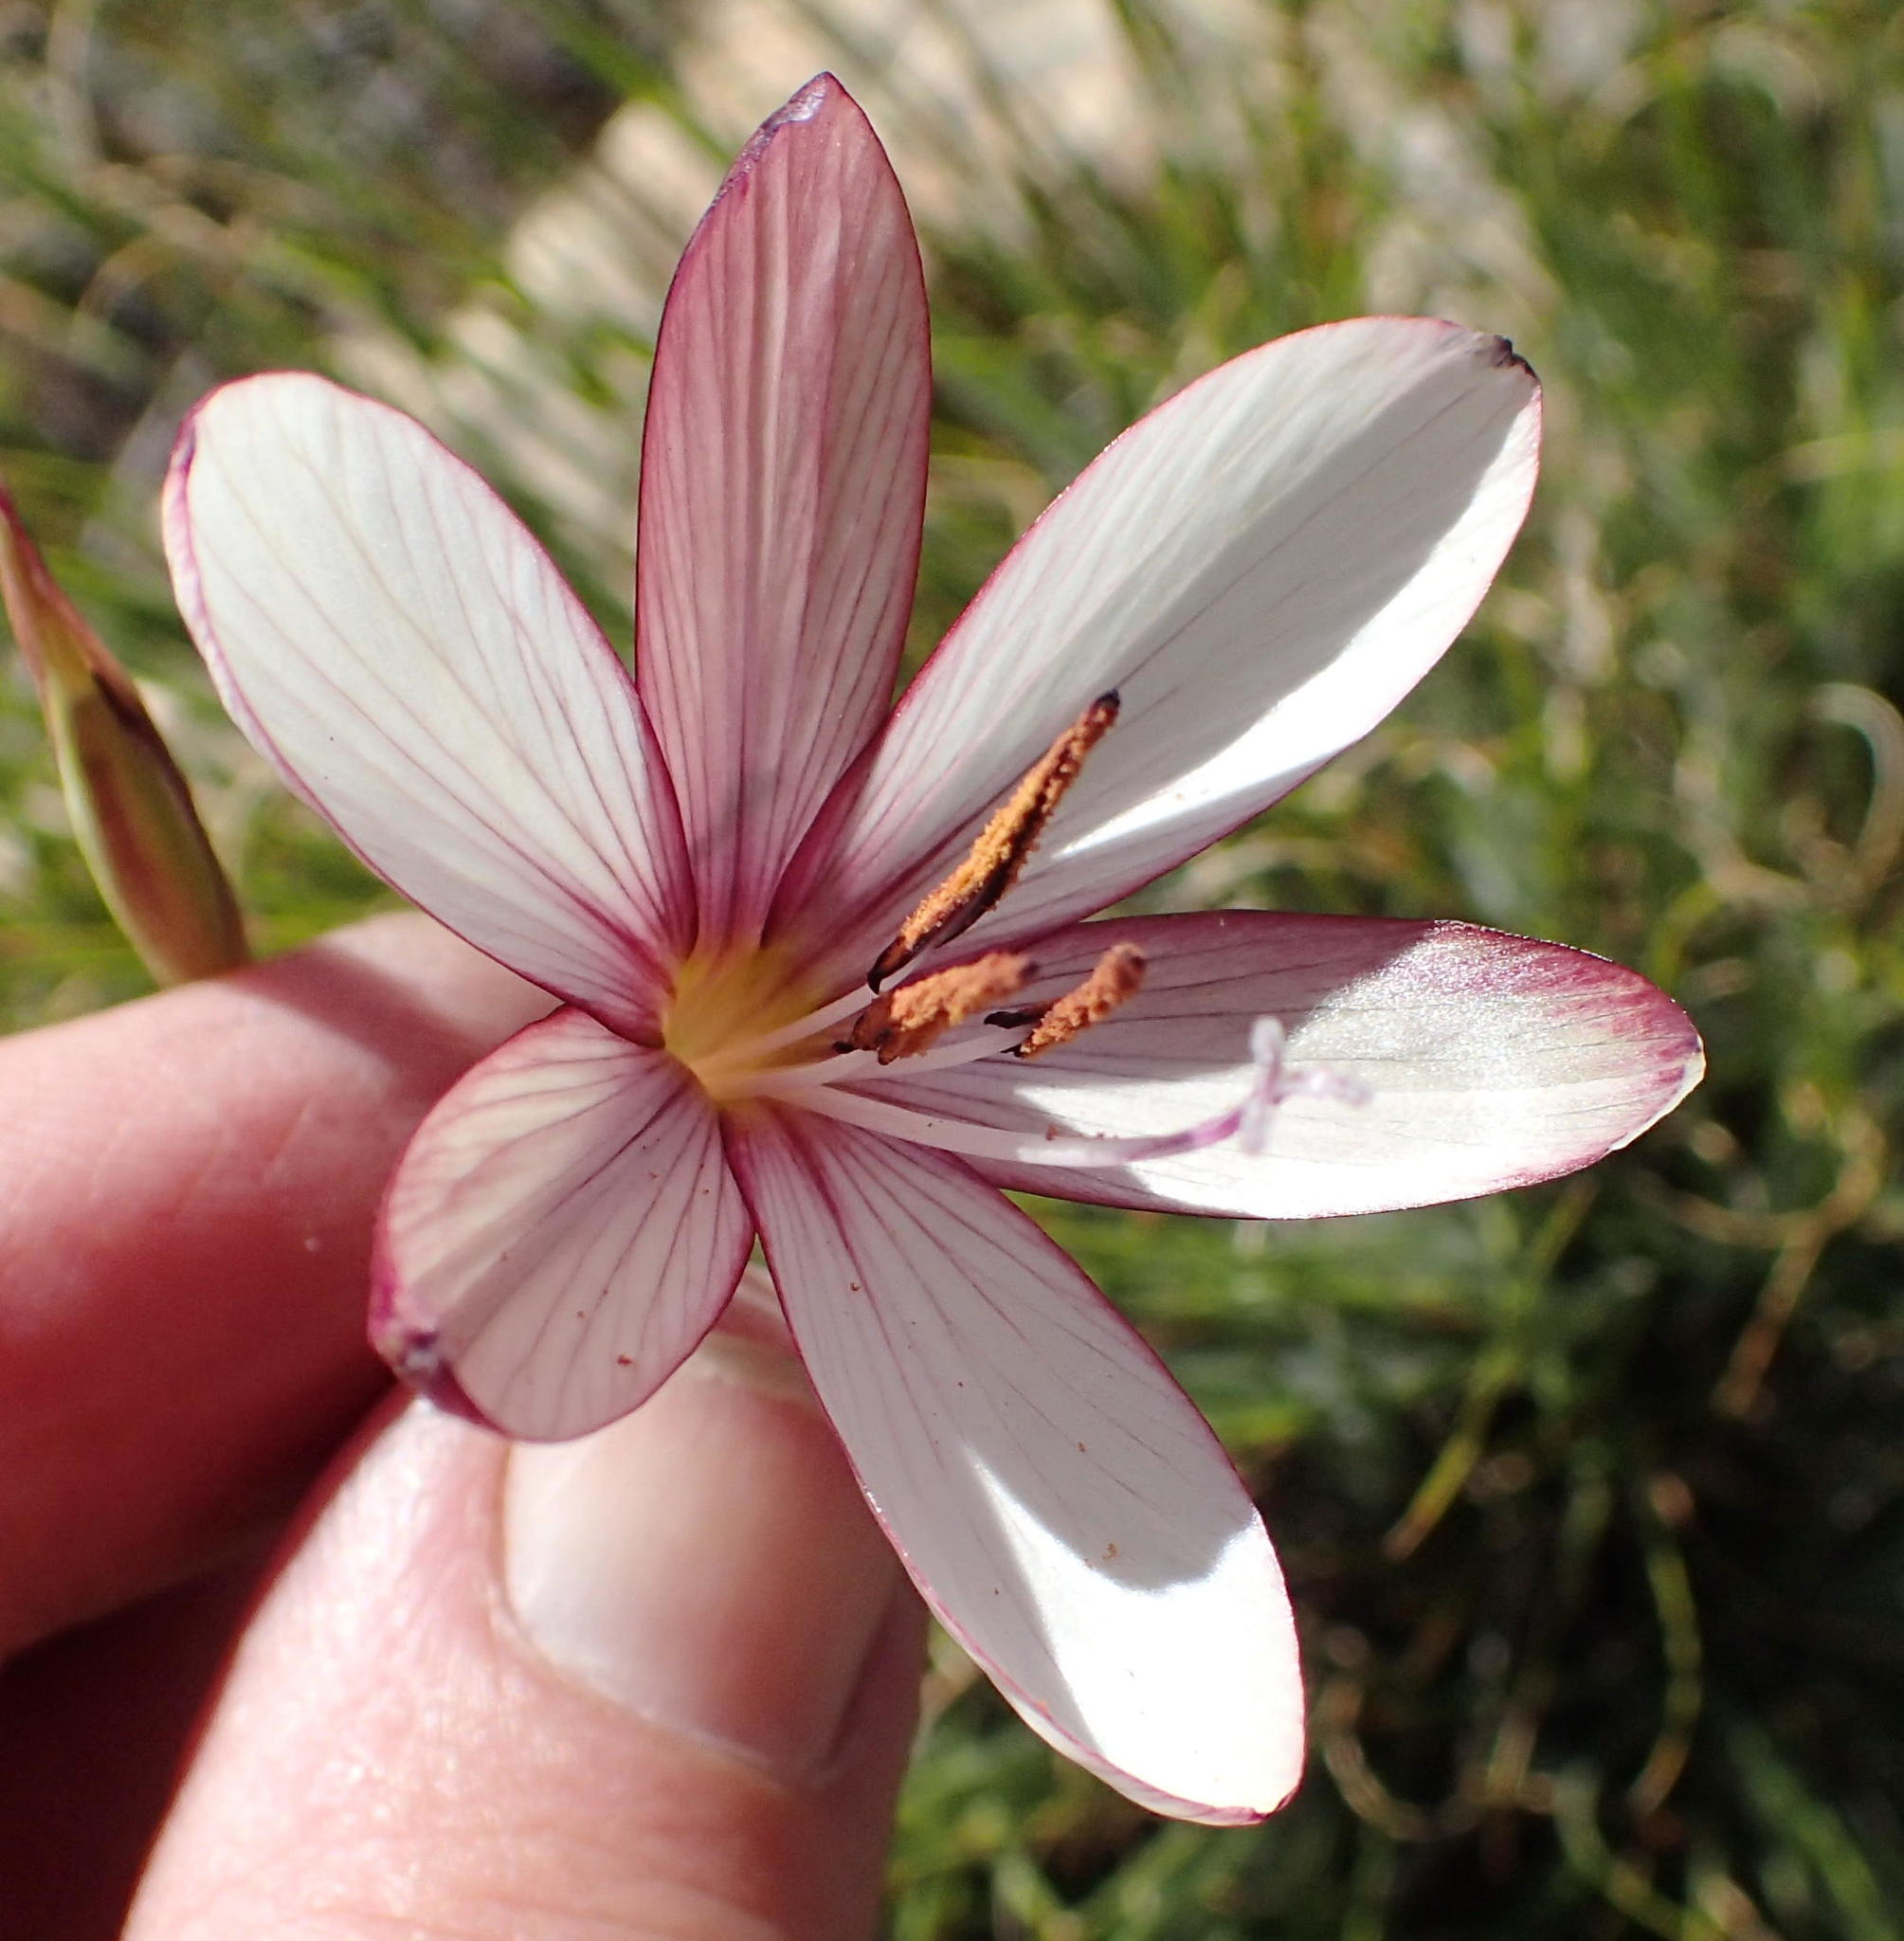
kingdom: Plantae
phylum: Tracheophyta
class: Liliopsida
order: Asparagales
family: Iridaceae
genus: Geissorhiza
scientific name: Geissorhiza fourcadei
